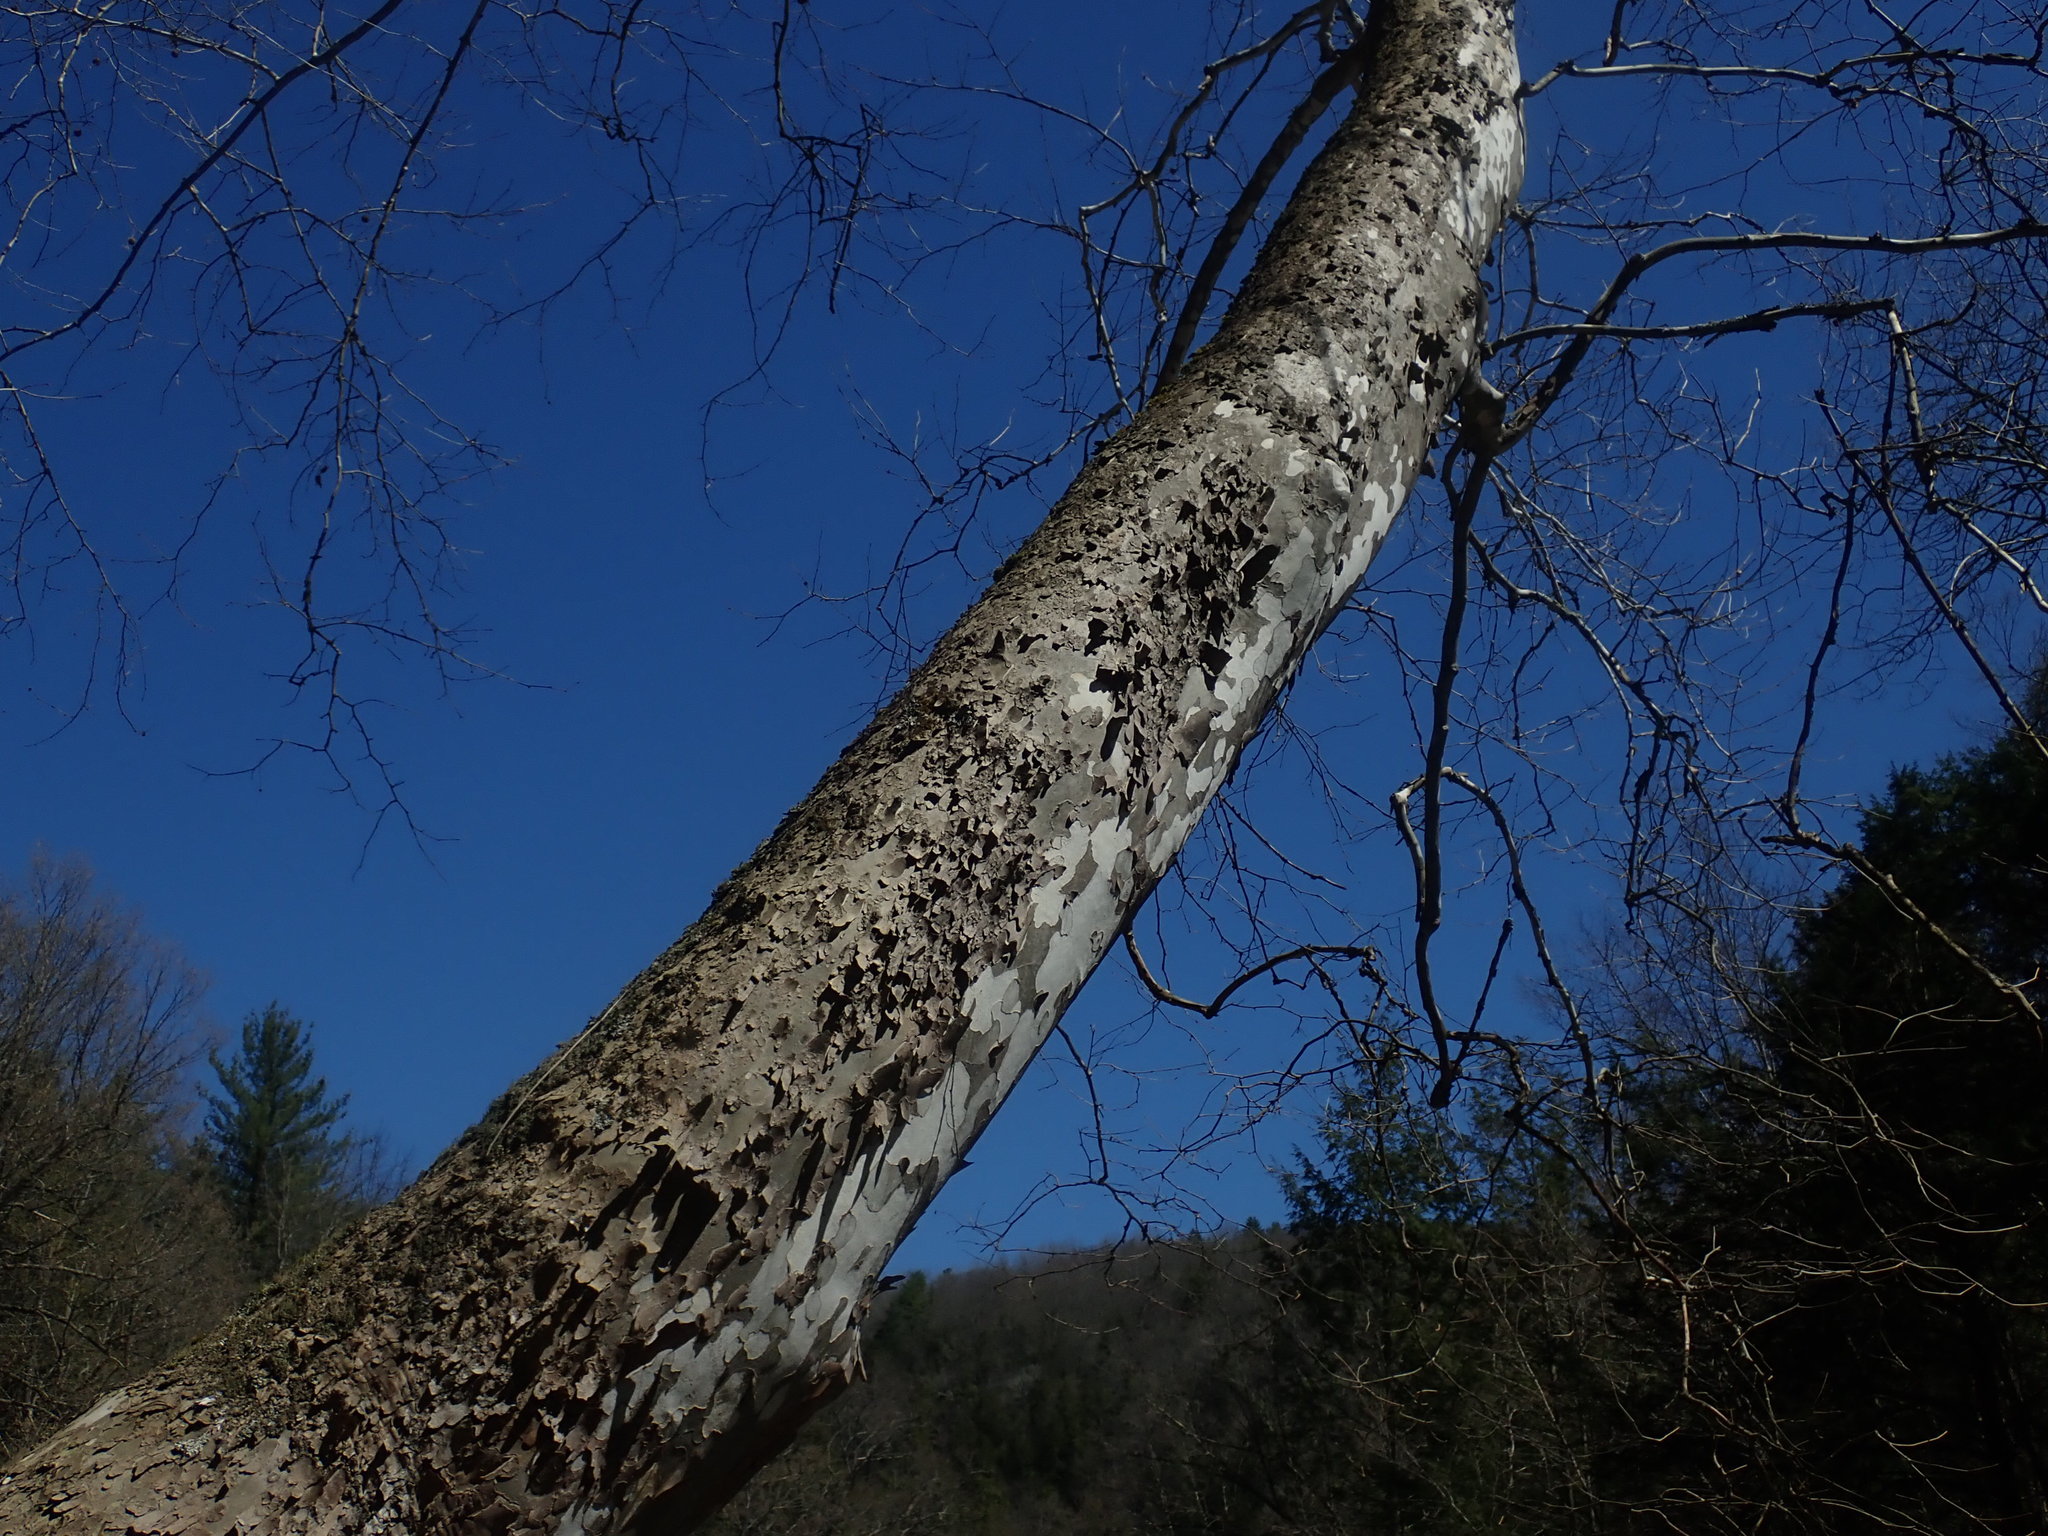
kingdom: Plantae
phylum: Tracheophyta
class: Magnoliopsida
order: Proteales
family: Platanaceae
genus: Platanus
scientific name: Platanus occidentalis
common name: American sycamore
